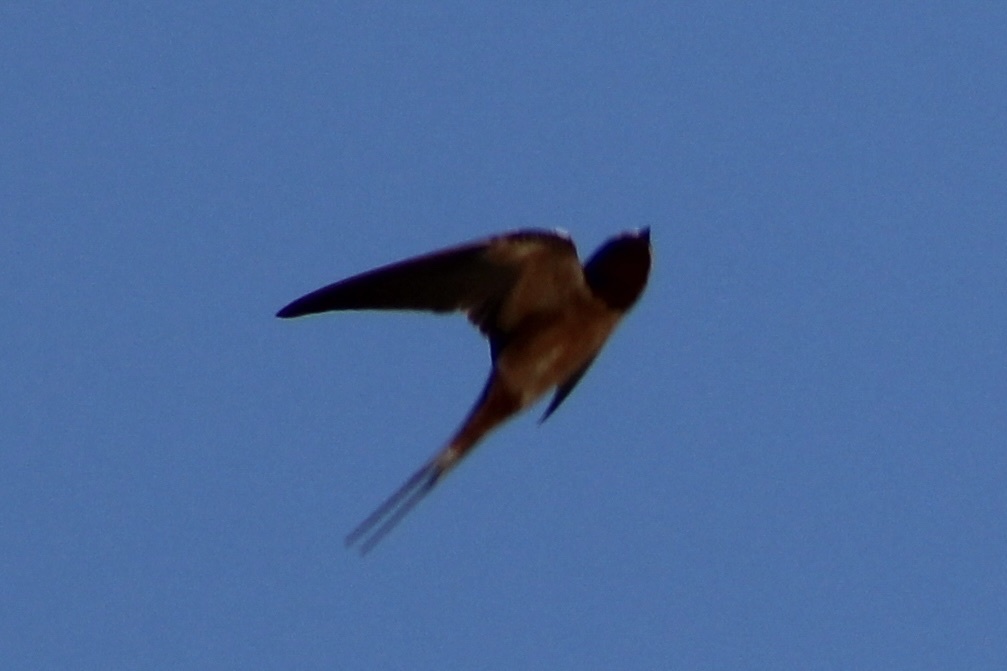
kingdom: Animalia
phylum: Chordata
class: Aves
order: Passeriformes
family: Hirundinidae
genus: Hirundo
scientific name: Hirundo rustica
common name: Barn swallow
